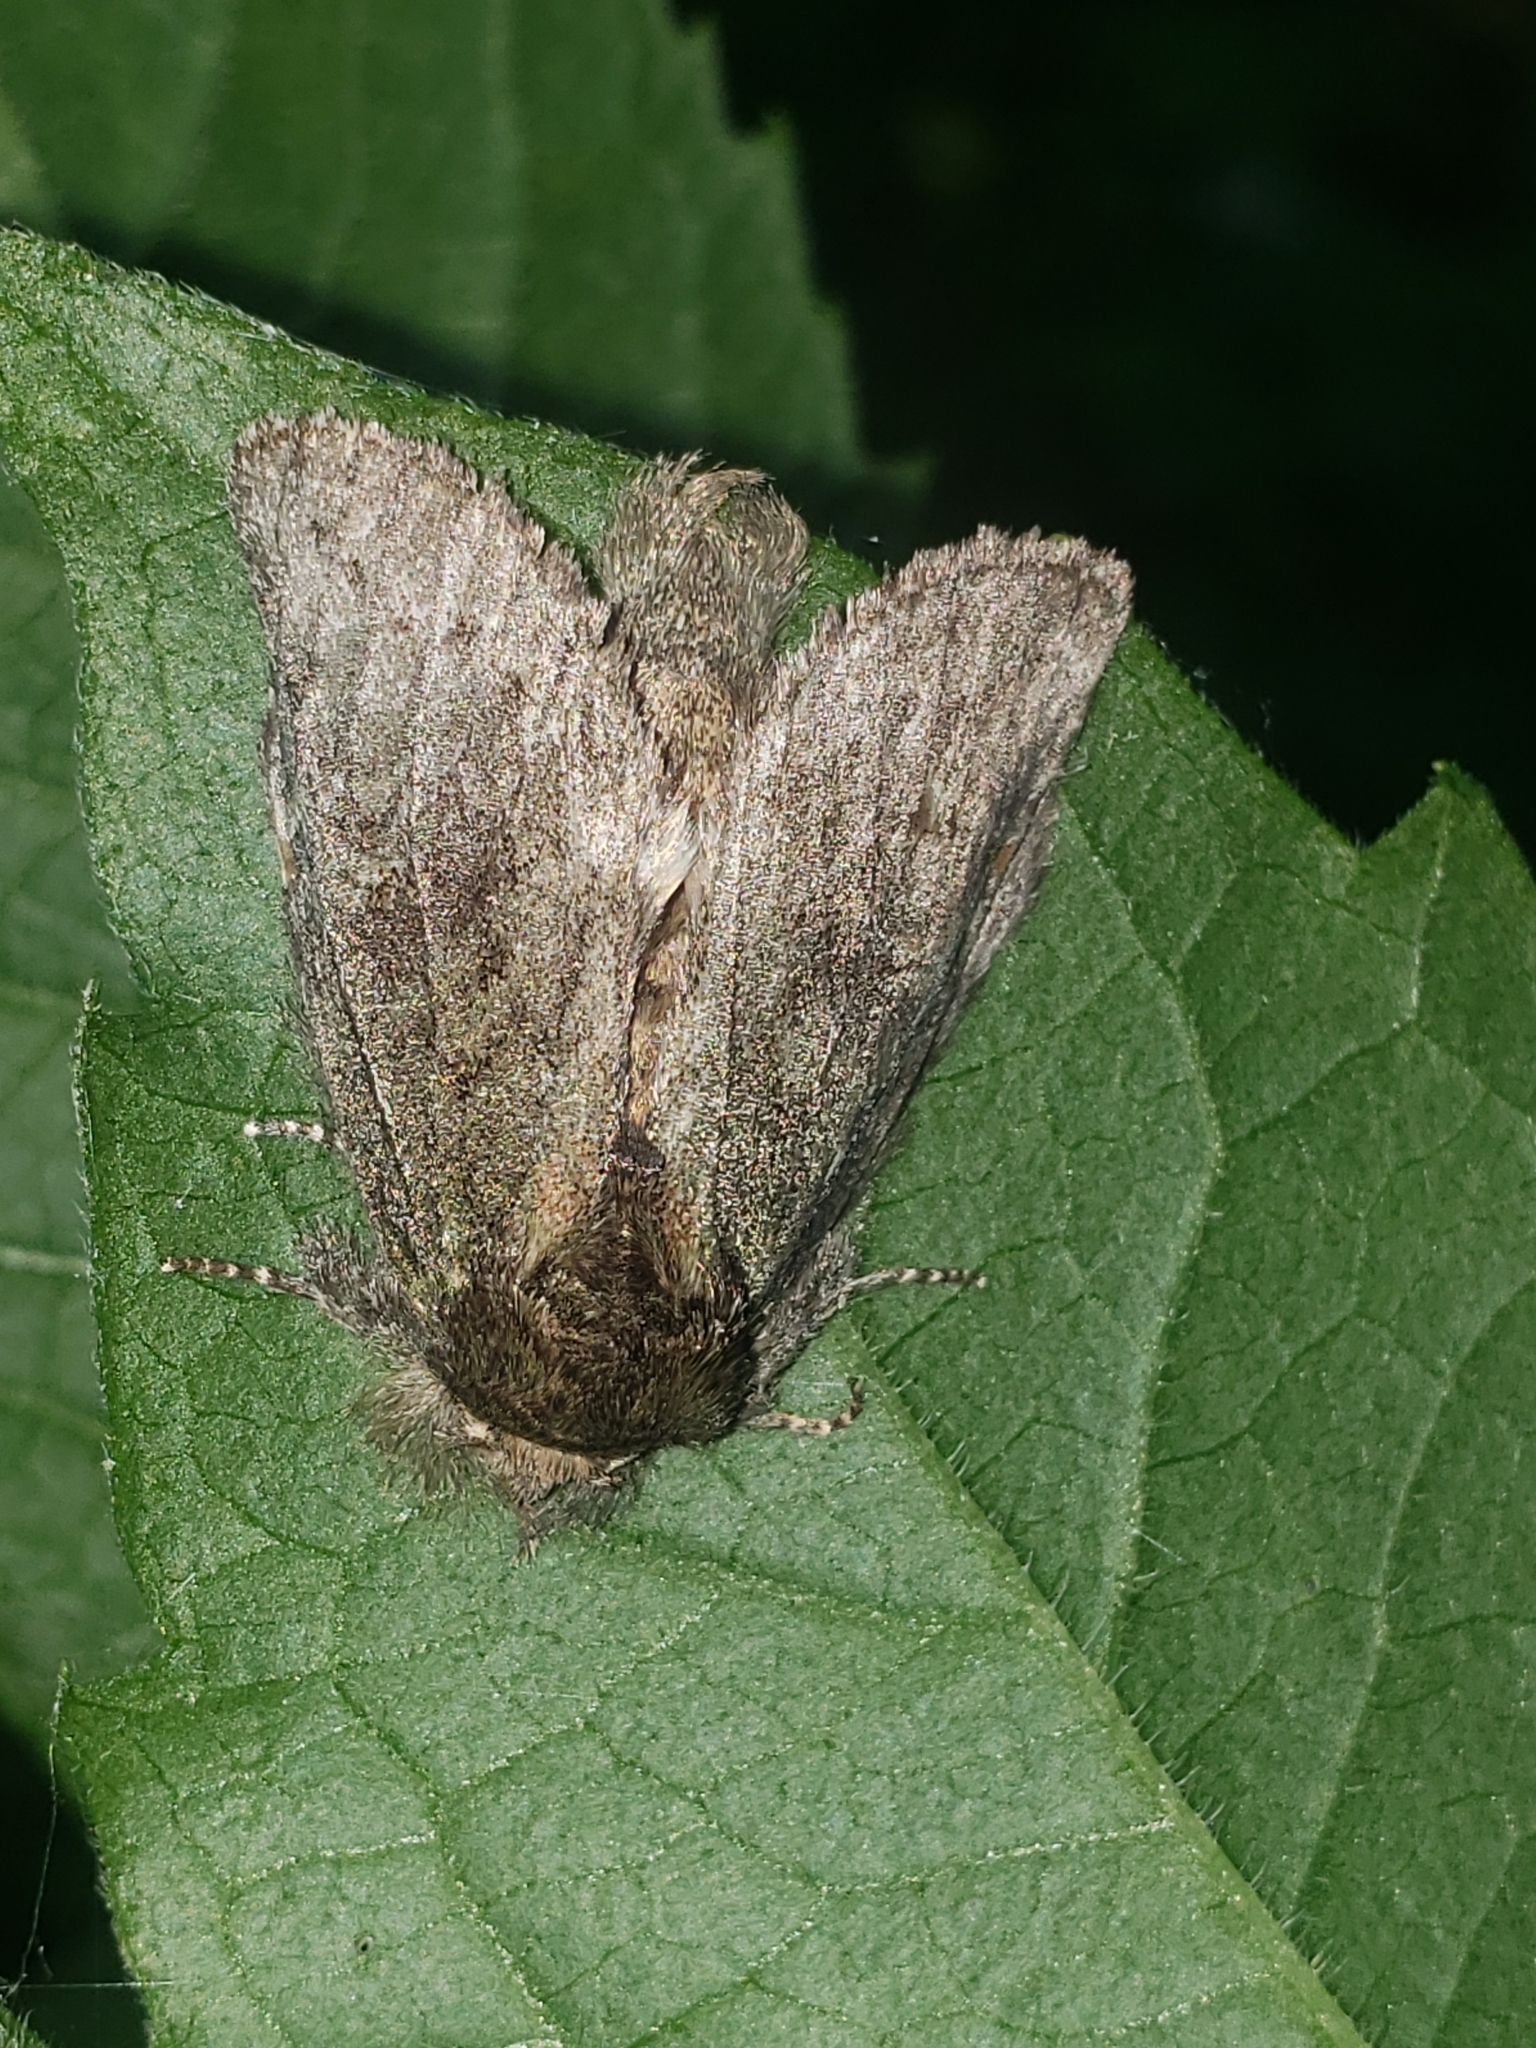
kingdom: Animalia
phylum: Arthropoda
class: Insecta
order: Lepidoptera
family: Notodontidae
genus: Disphragis
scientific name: Disphragis Cecrita guttivitta
